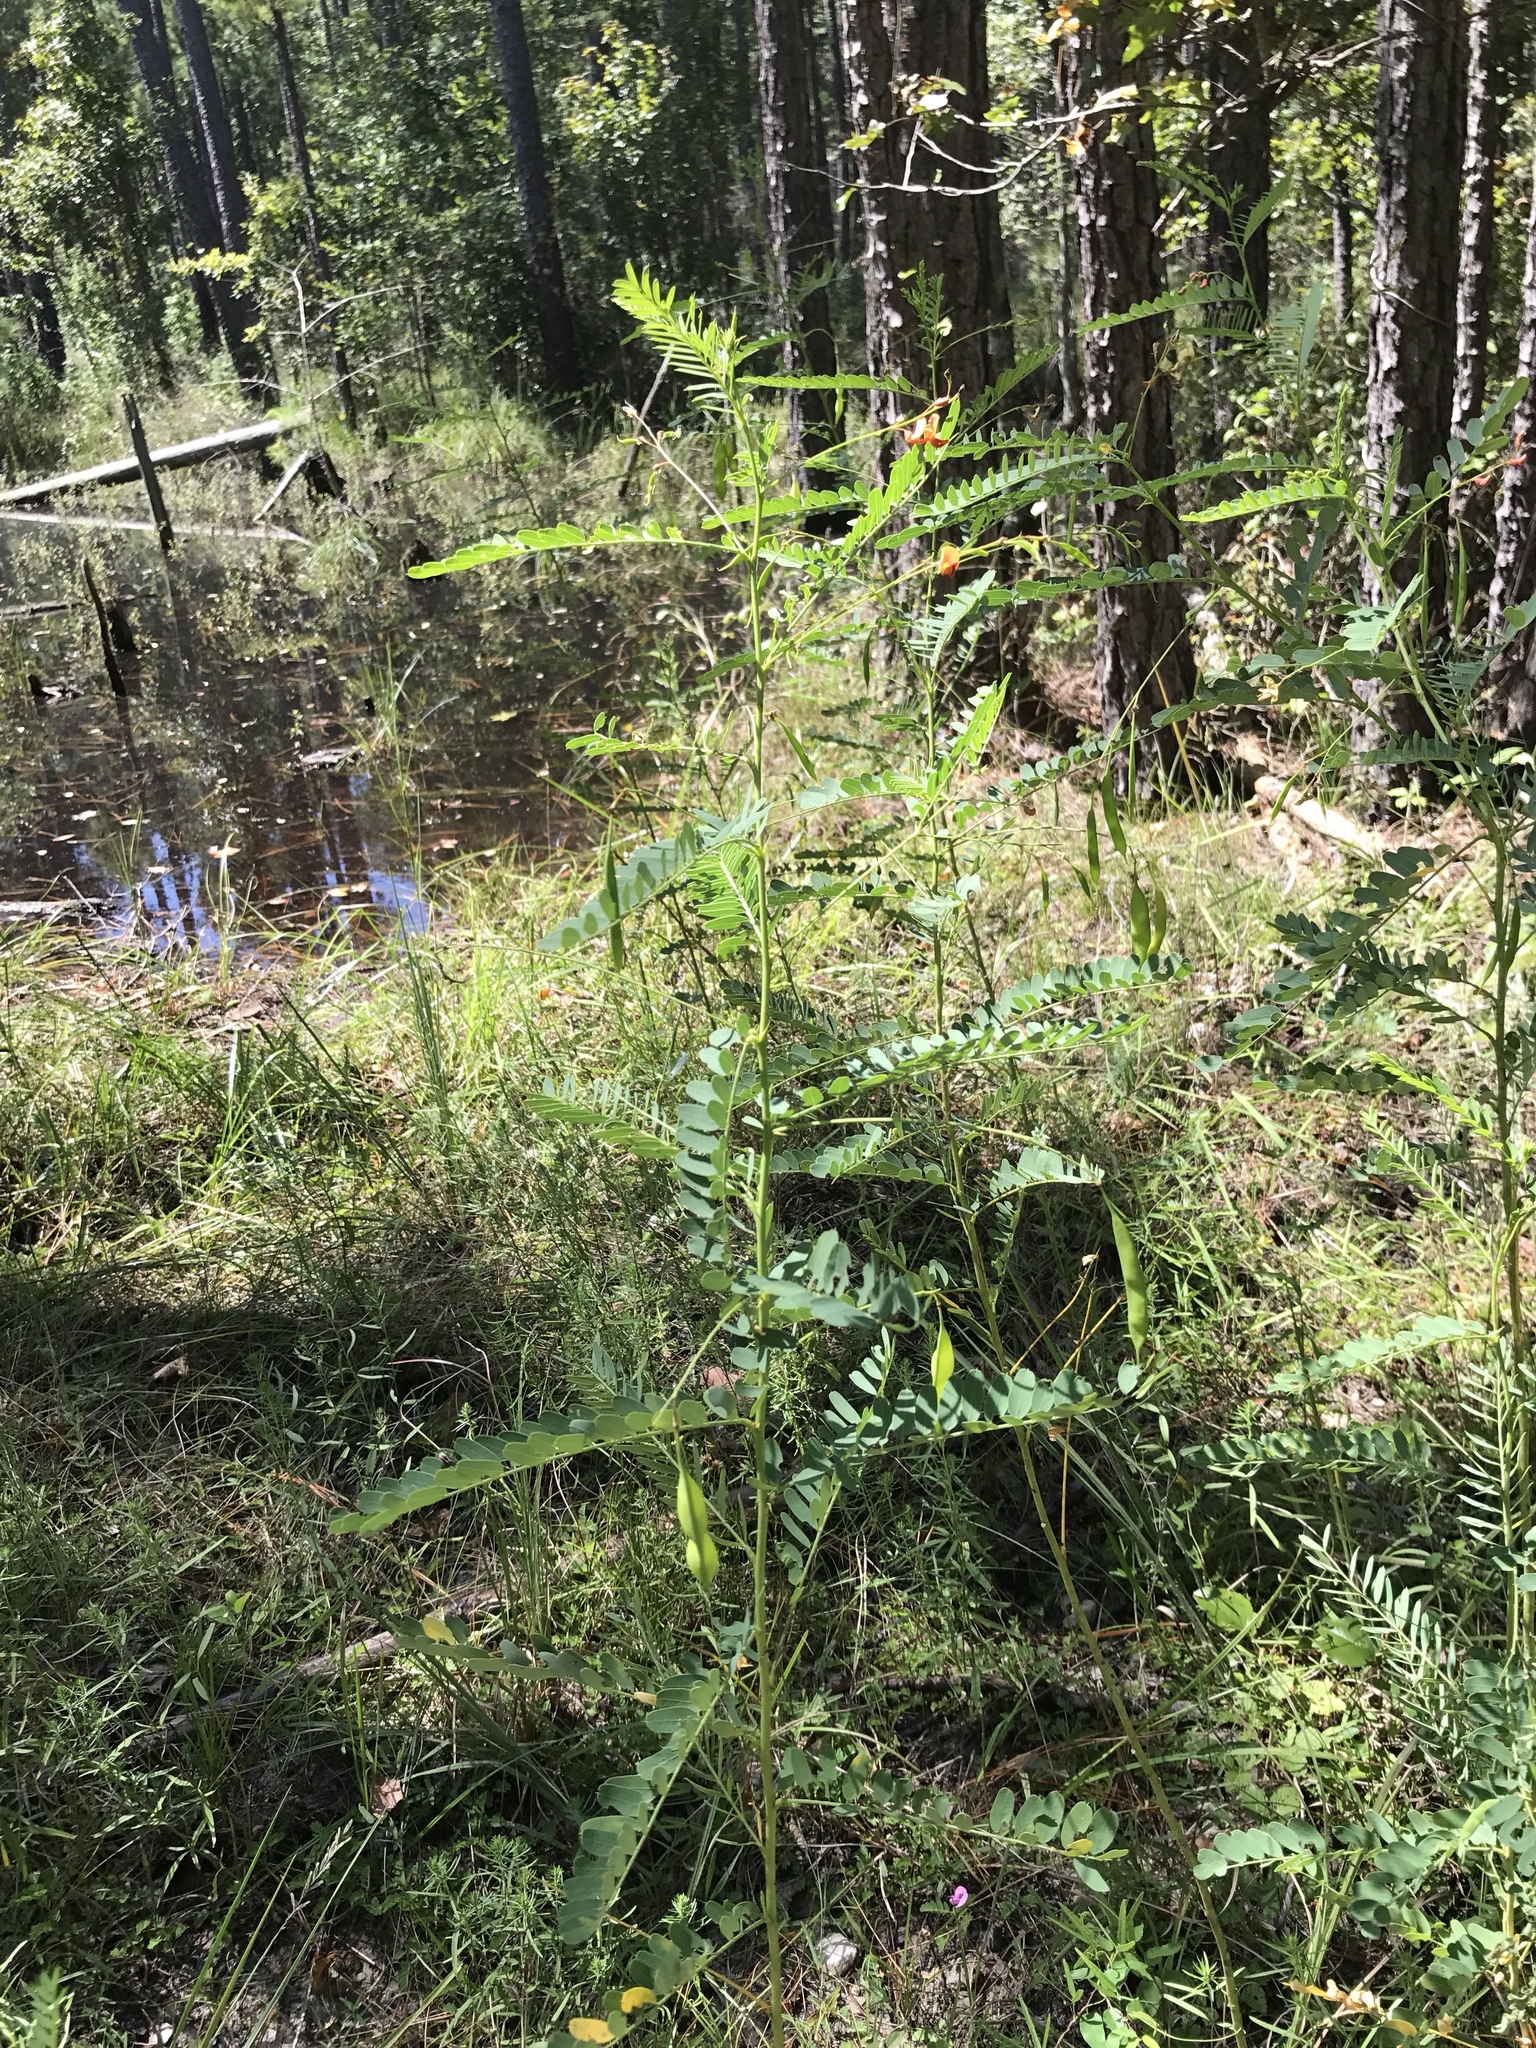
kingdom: Plantae
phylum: Tracheophyta
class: Magnoliopsida
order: Fabales
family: Fabaceae
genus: Sesbania
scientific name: Sesbania vesicaria
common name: Bagpod
